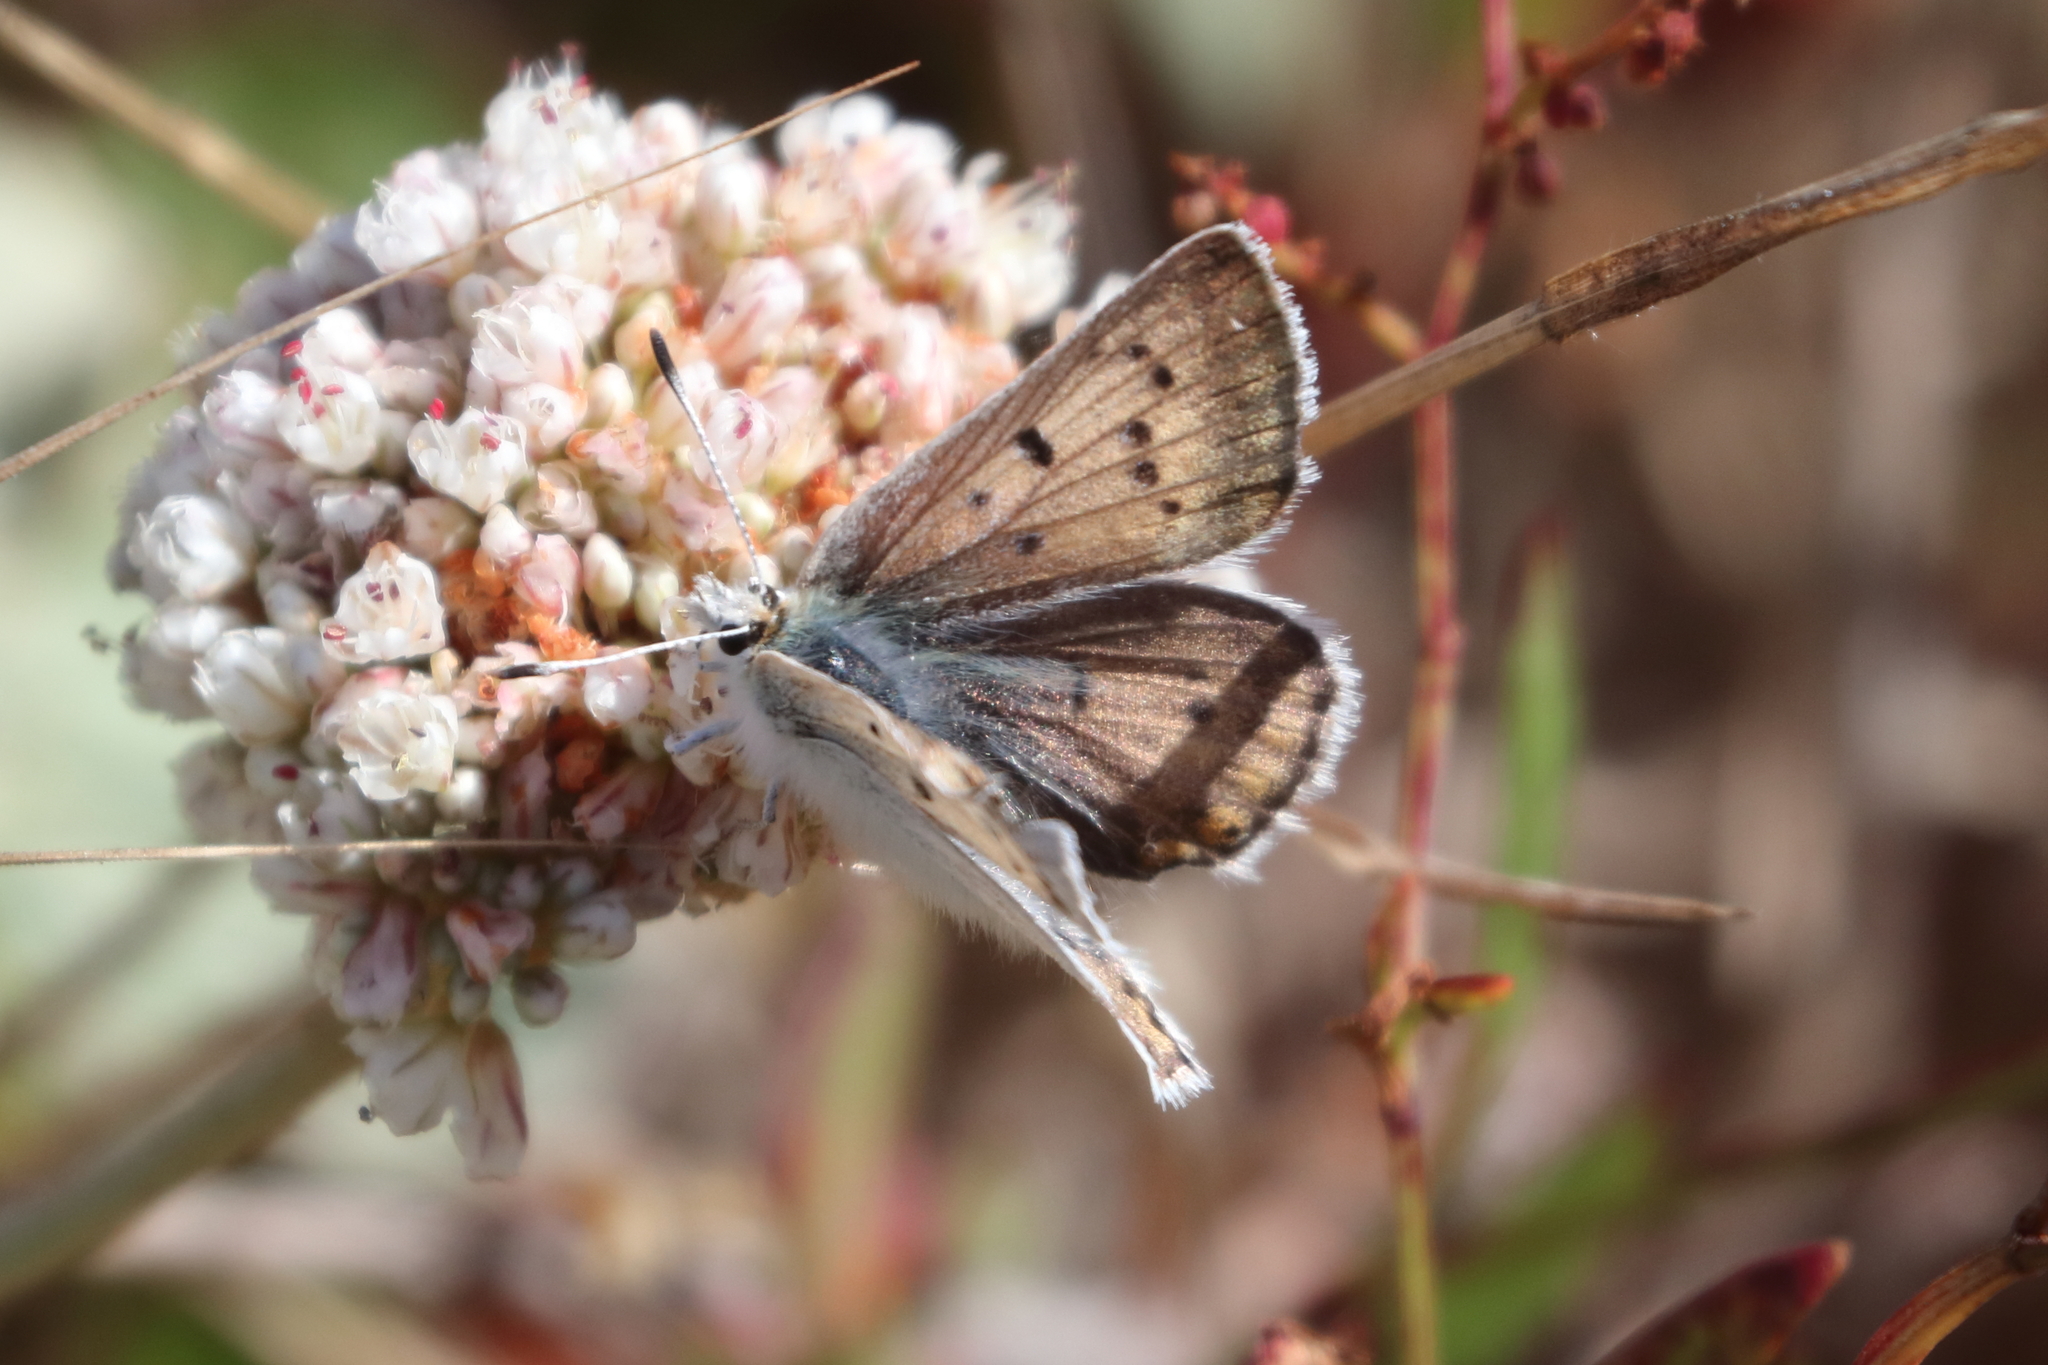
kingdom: Animalia
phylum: Arthropoda
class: Insecta
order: Lepidoptera
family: Lycaenidae
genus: Tharsalea
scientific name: Tharsalea heteronea
